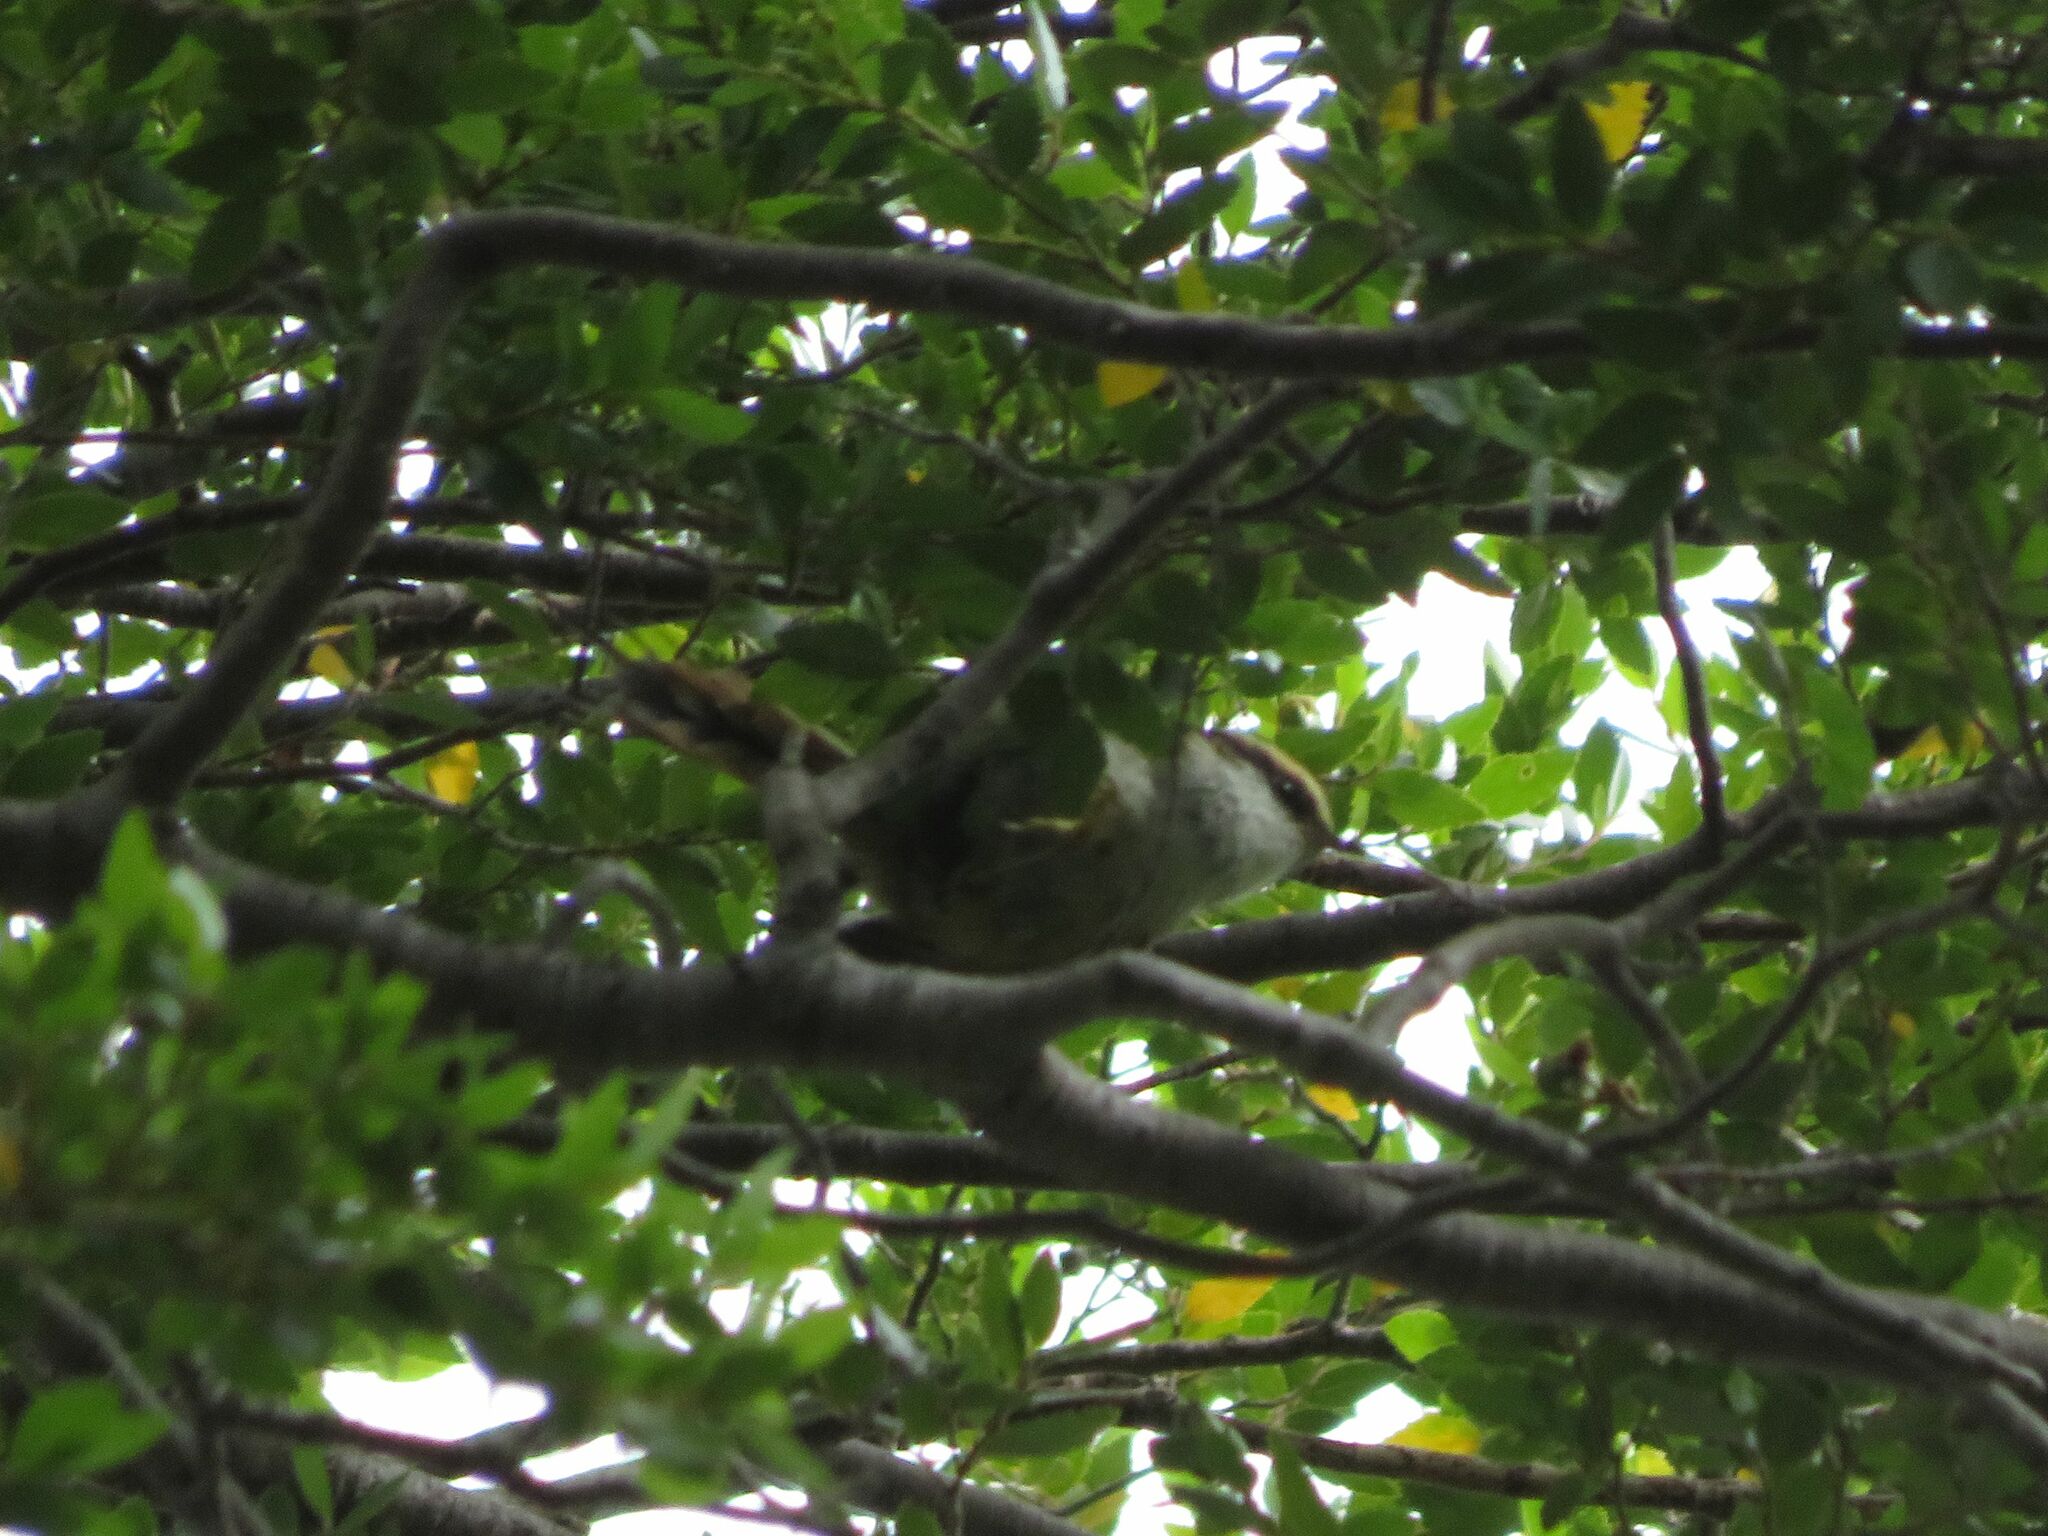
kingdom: Animalia
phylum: Chordata
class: Aves
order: Passeriformes
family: Furnariidae
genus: Aphrastura
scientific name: Aphrastura spinicauda
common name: Thorn-tailed rayadito
